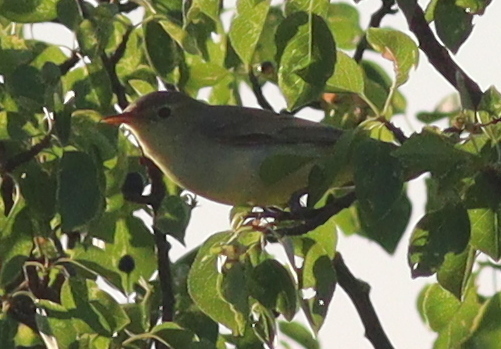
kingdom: Animalia
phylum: Chordata
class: Aves
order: Passeriformes
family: Acrocephalidae
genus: Hippolais
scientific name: Hippolais icterina
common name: Icterine warbler
